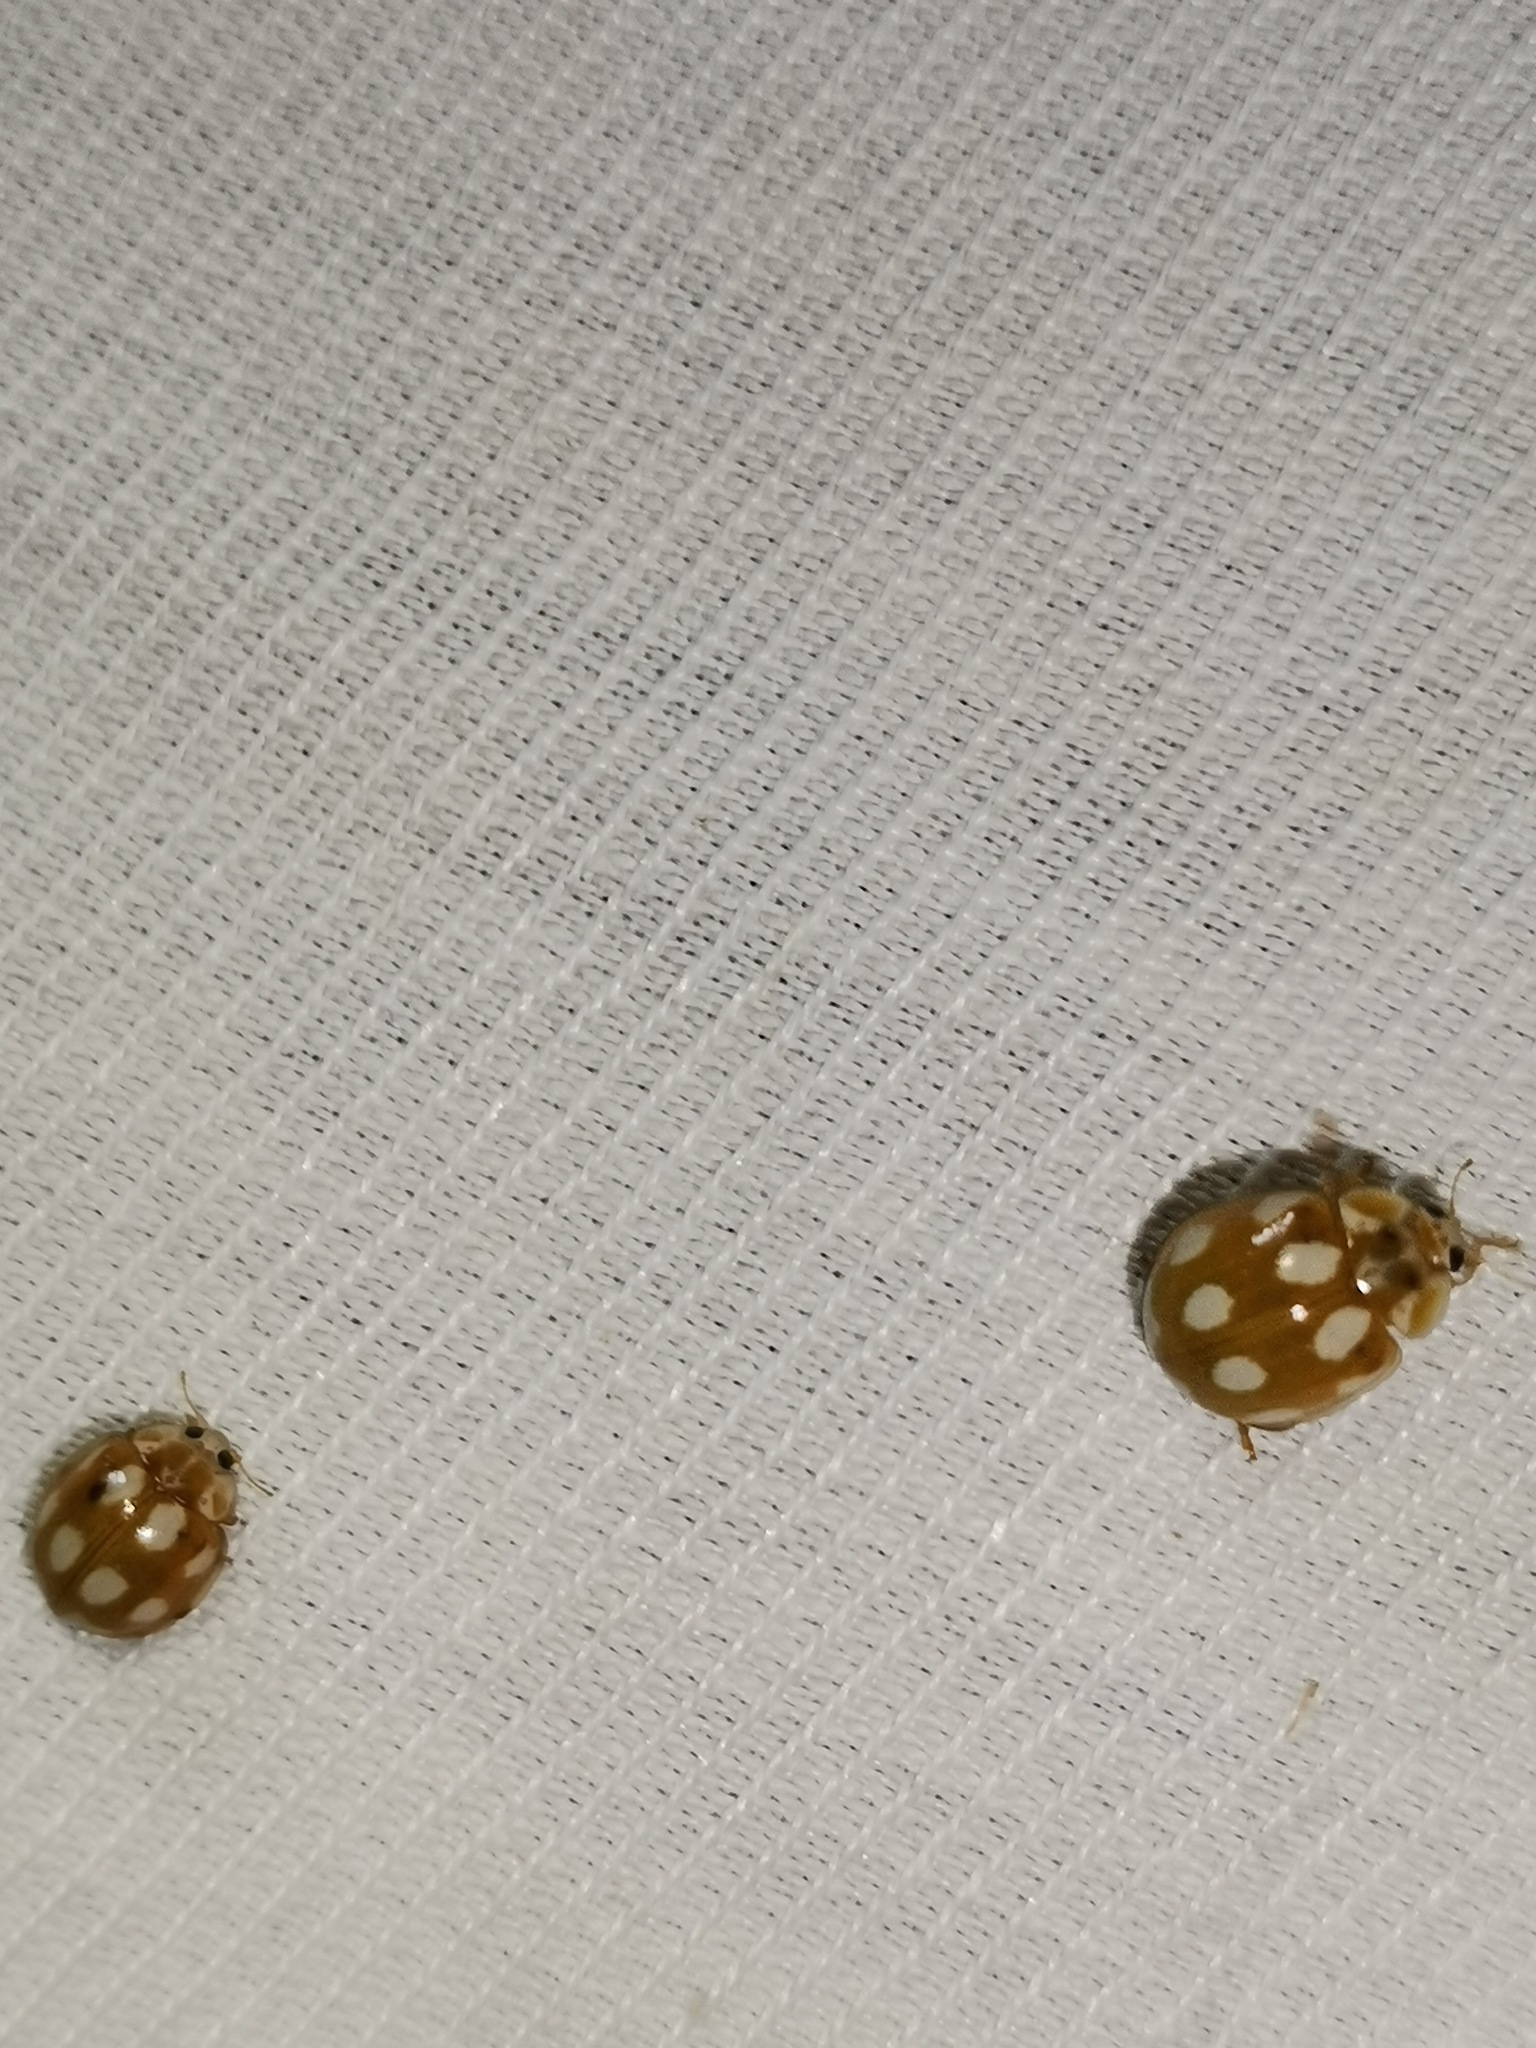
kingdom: Animalia
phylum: Arthropoda
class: Insecta
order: Coleoptera
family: Coccinellidae
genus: Calvia
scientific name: Calvia decemguttata
